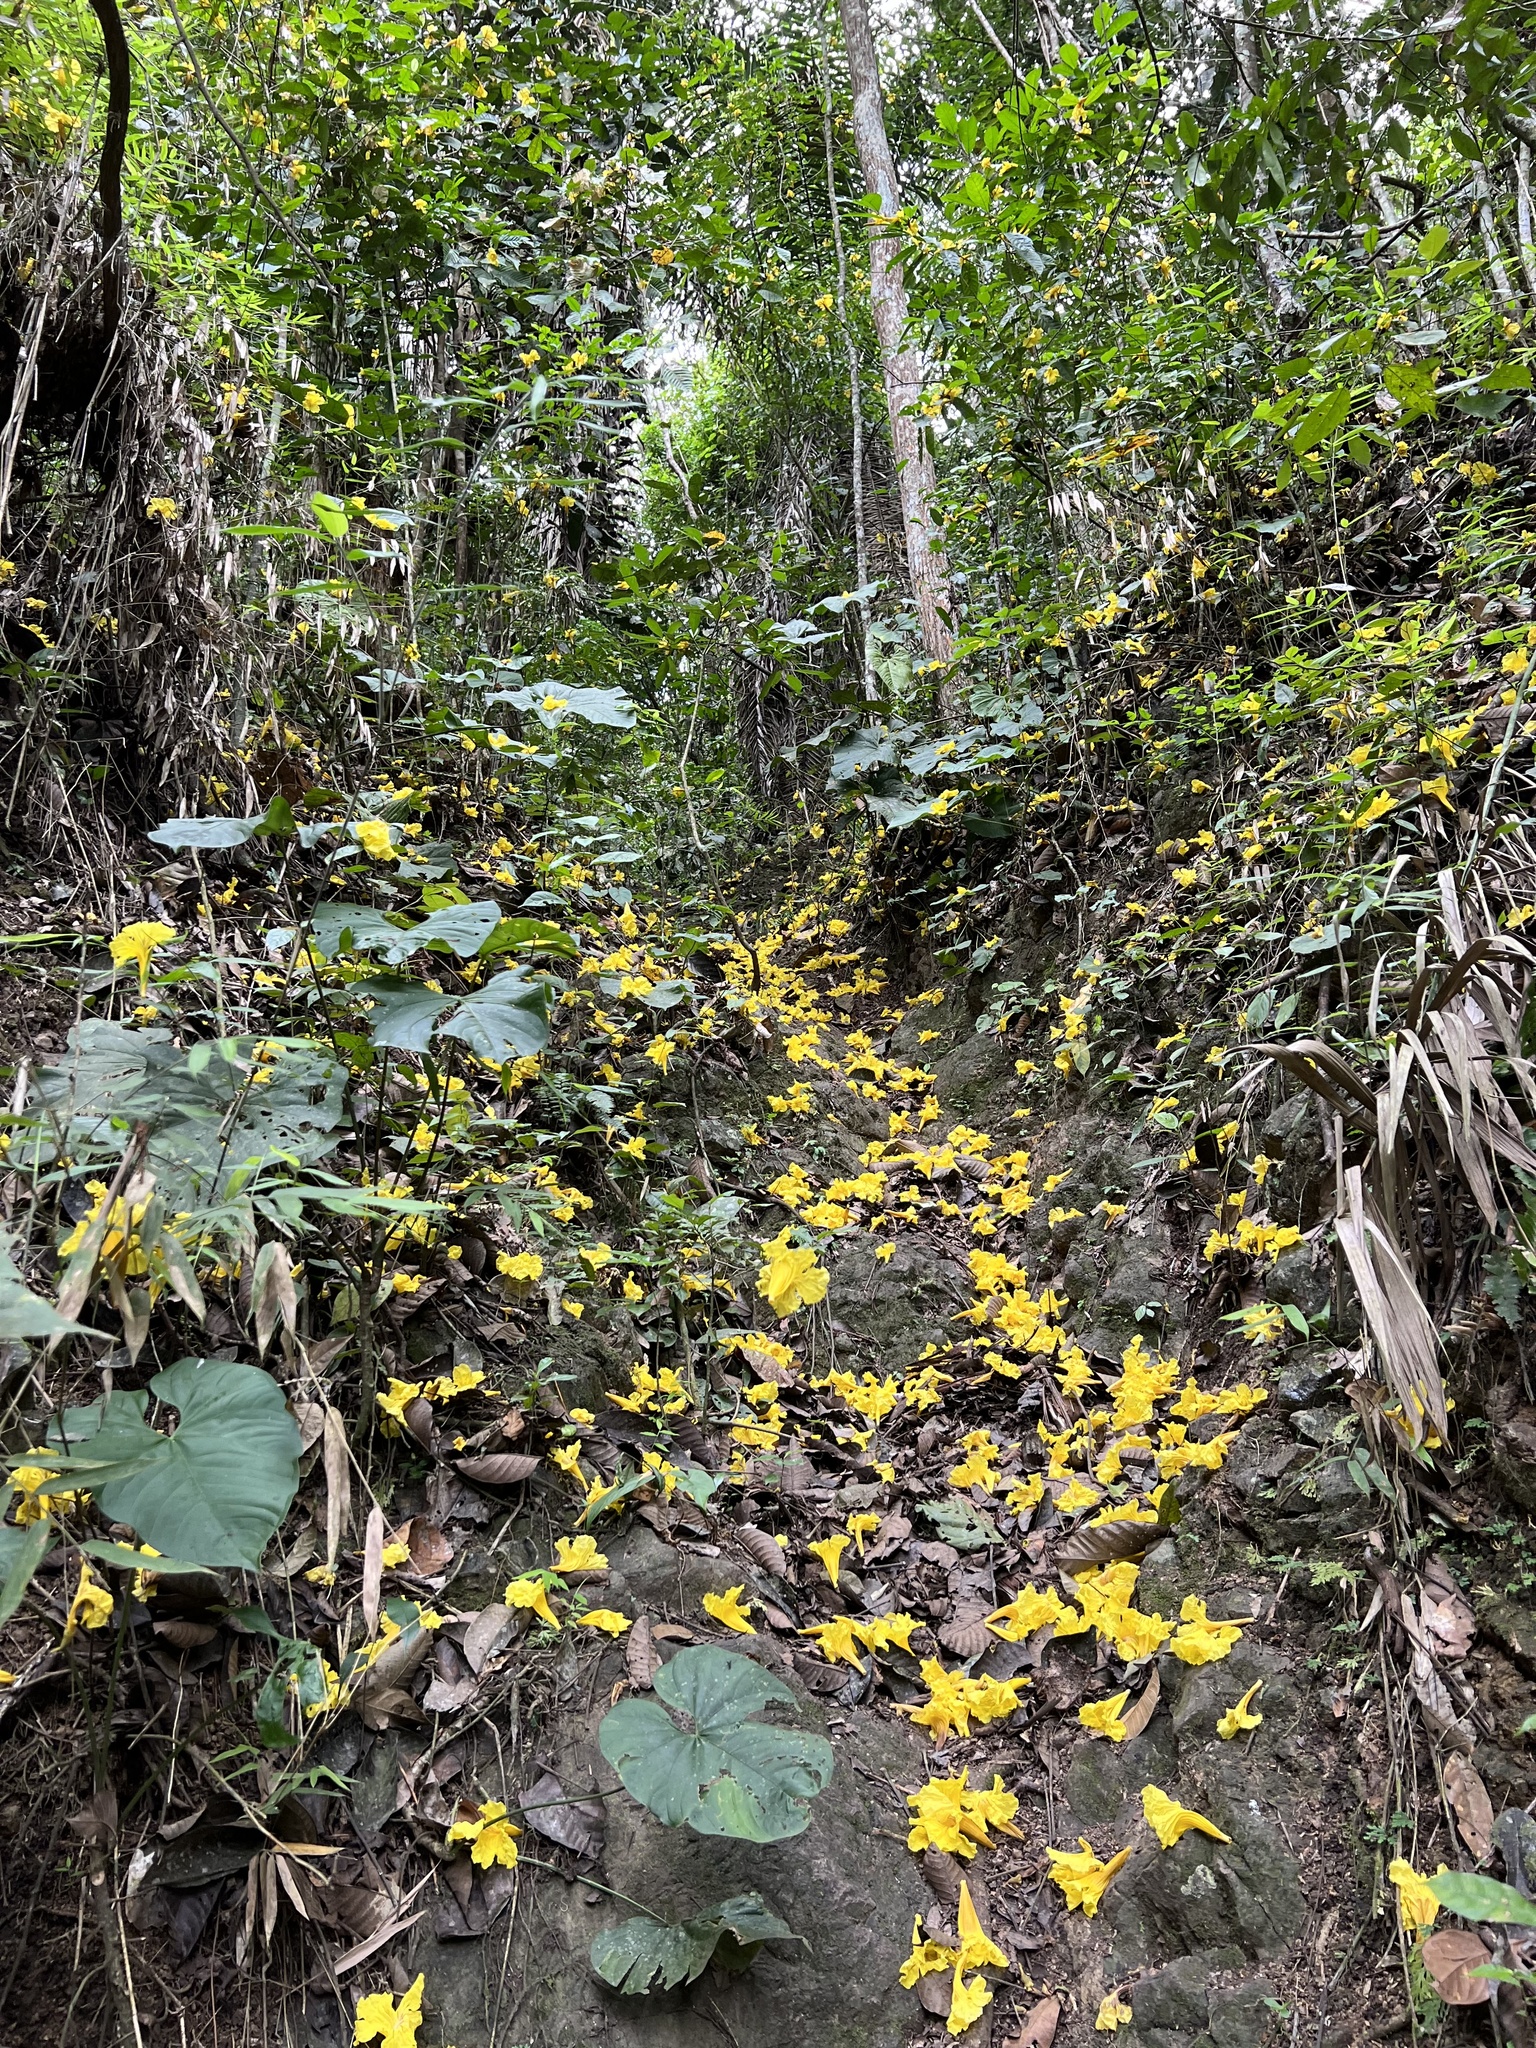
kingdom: Plantae
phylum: Tracheophyta
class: Magnoliopsida
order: Lamiales
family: Bignoniaceae
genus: Handroanthus
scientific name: Handroanthus chrysanthus
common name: Trumpet trees
